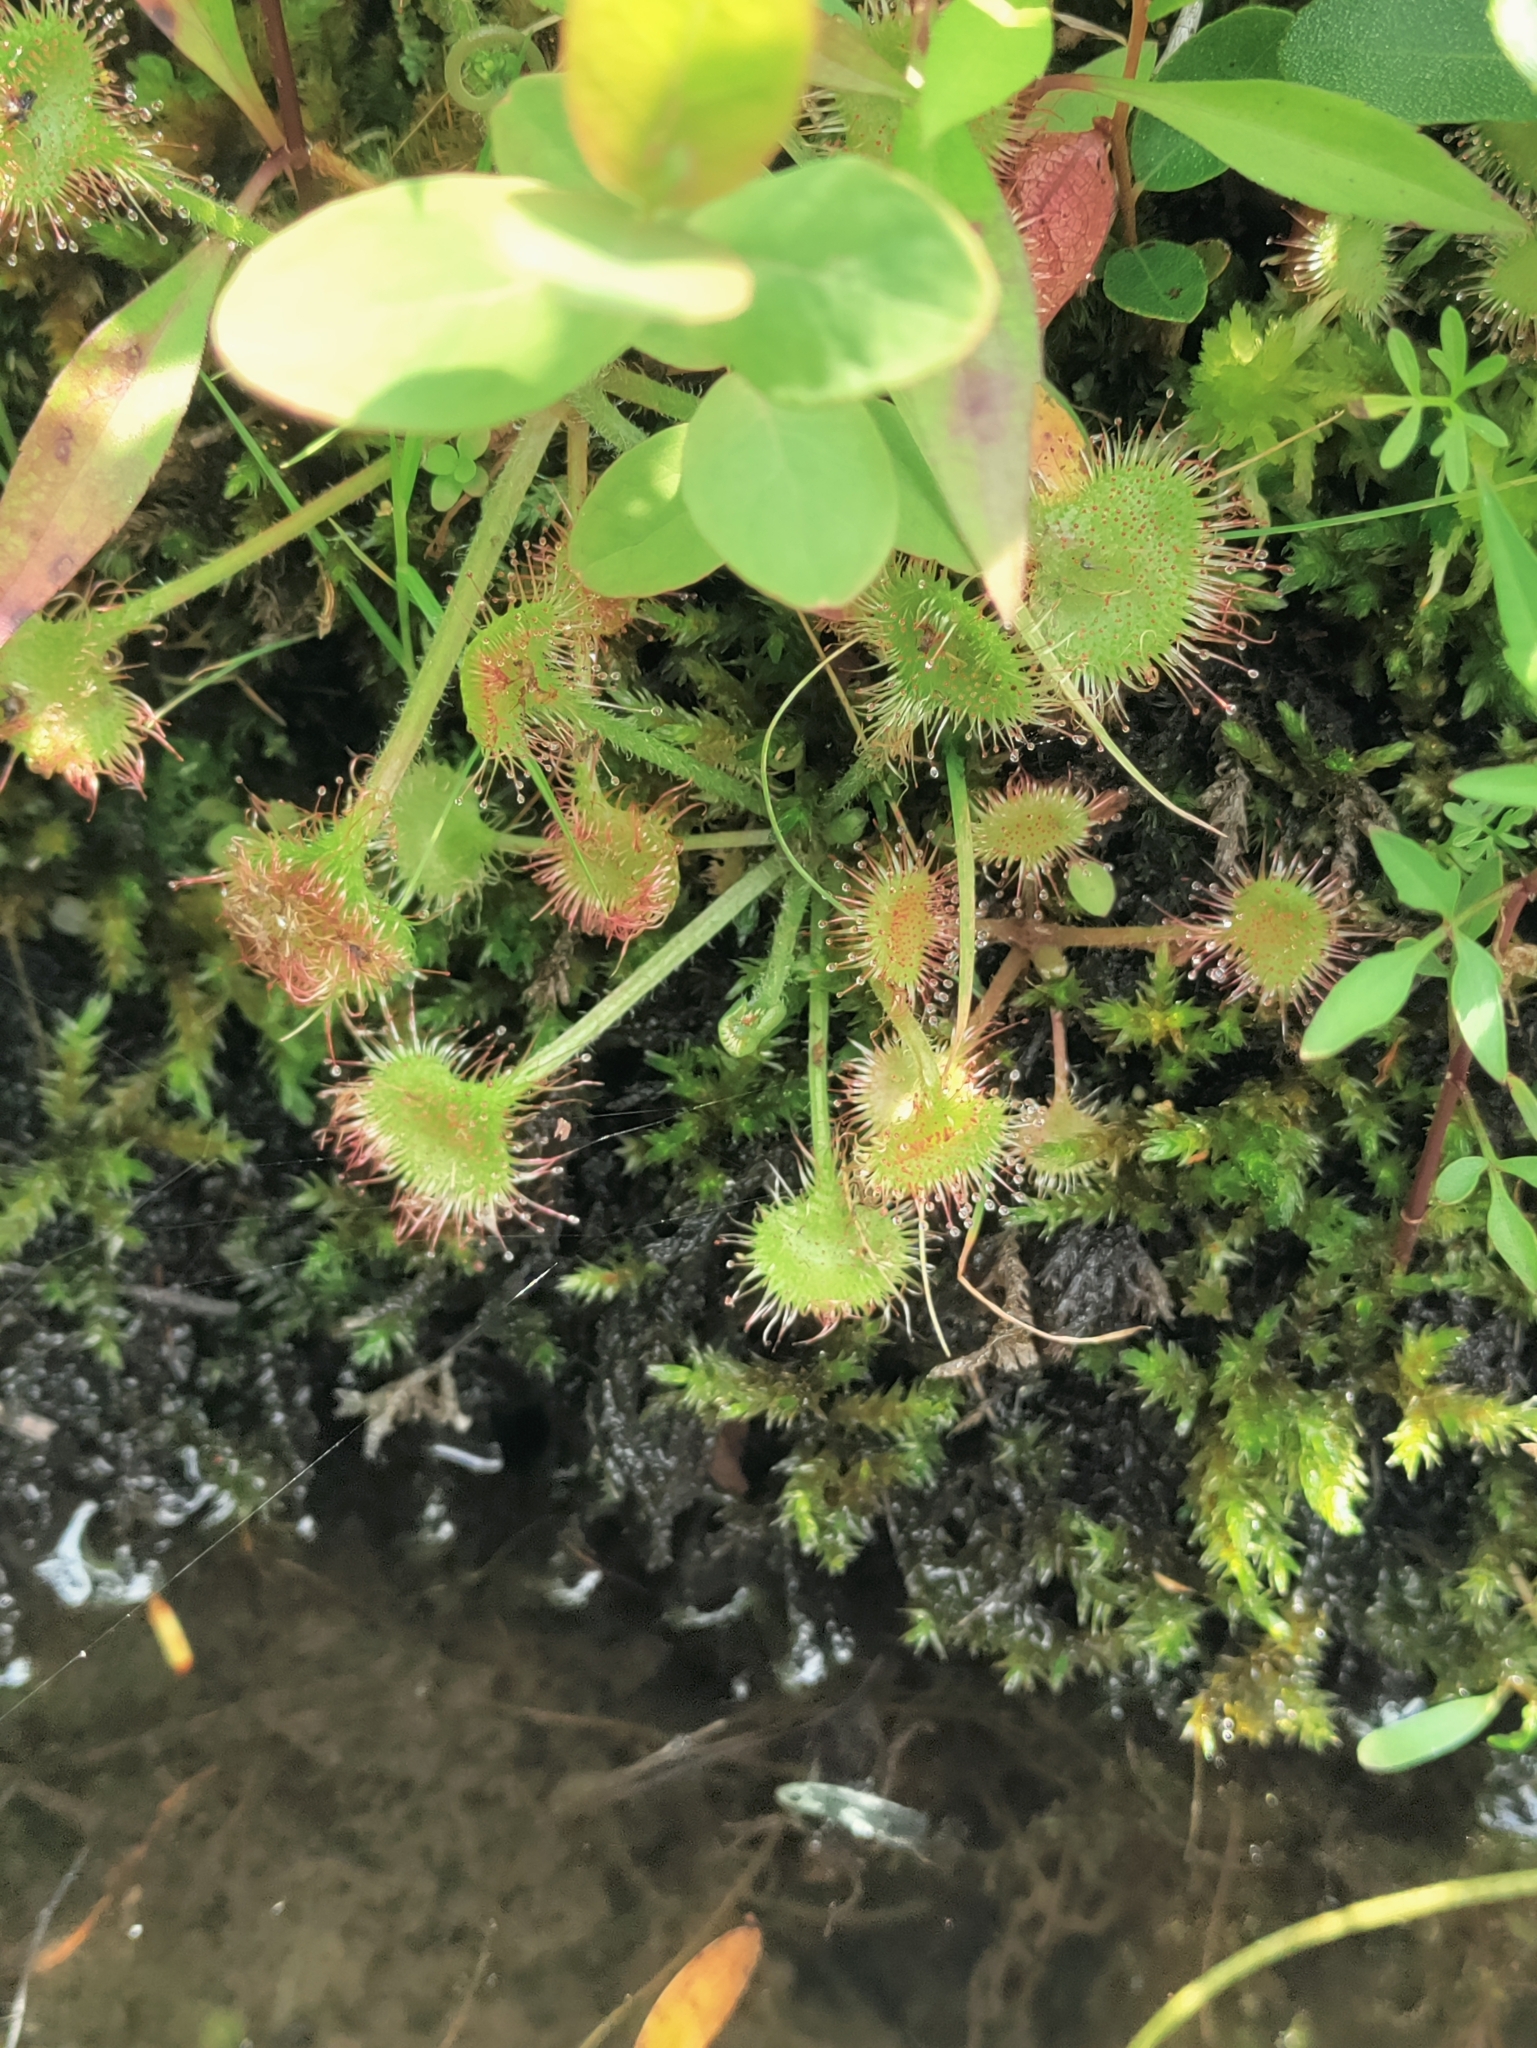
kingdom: Plantae
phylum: Tracheophyta
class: Magnoliopsida
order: Caryophyllales
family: Droseraceae
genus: Drosera
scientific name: Drosera rotundifolia
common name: Round-leaved sundew
